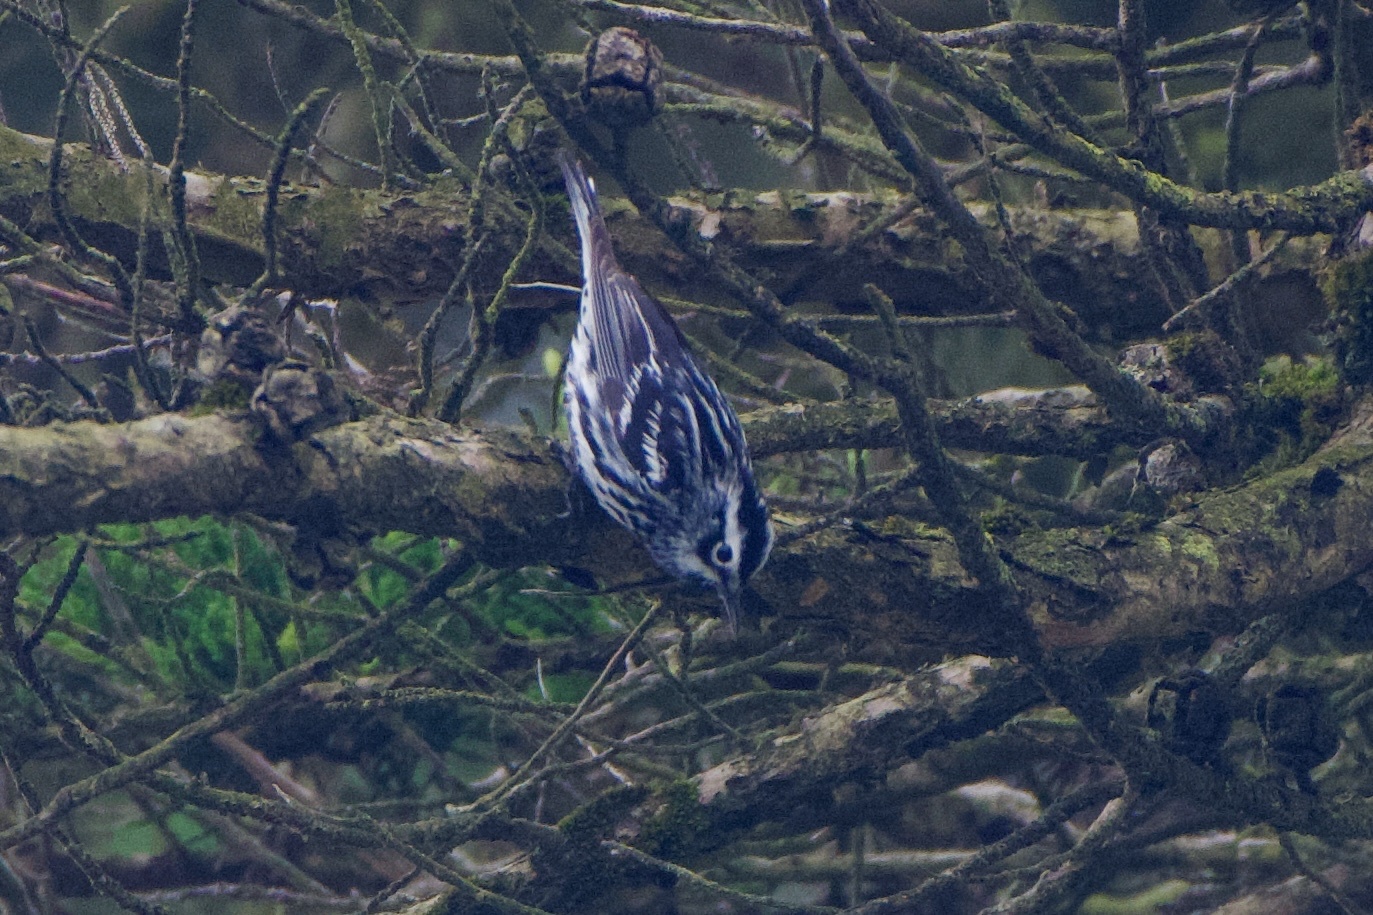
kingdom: Animalia
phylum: Chordata
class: Aves
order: Passeriformes
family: Parulidae
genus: Mniotilta
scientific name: Mniotilta varia
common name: Black-and-white warbler
